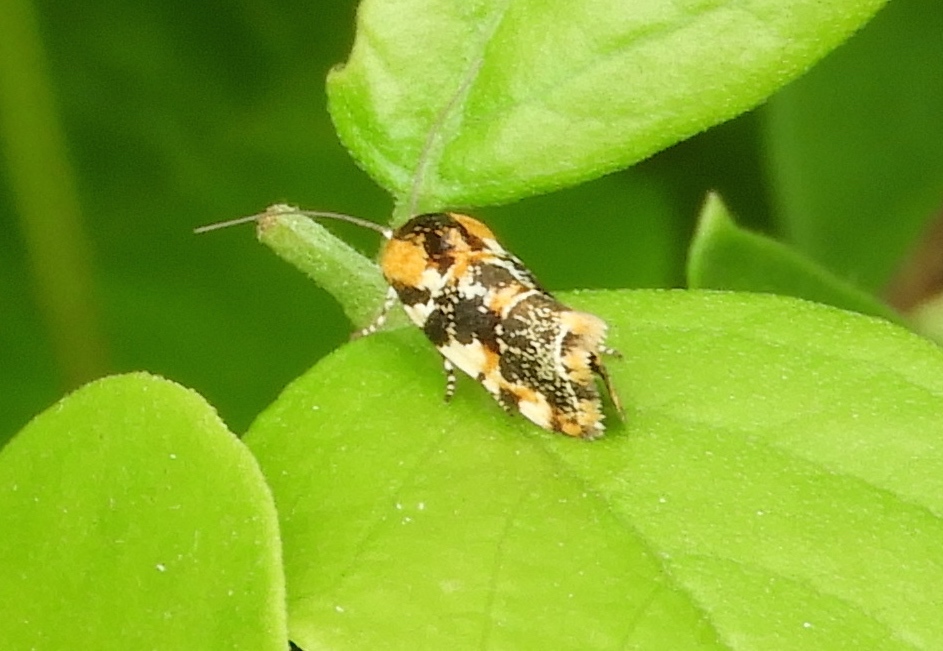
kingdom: Animalia
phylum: Arthropoda
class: Insecta
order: Lepidoptera
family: Noctuidae
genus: Spragueia
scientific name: Spragueia
